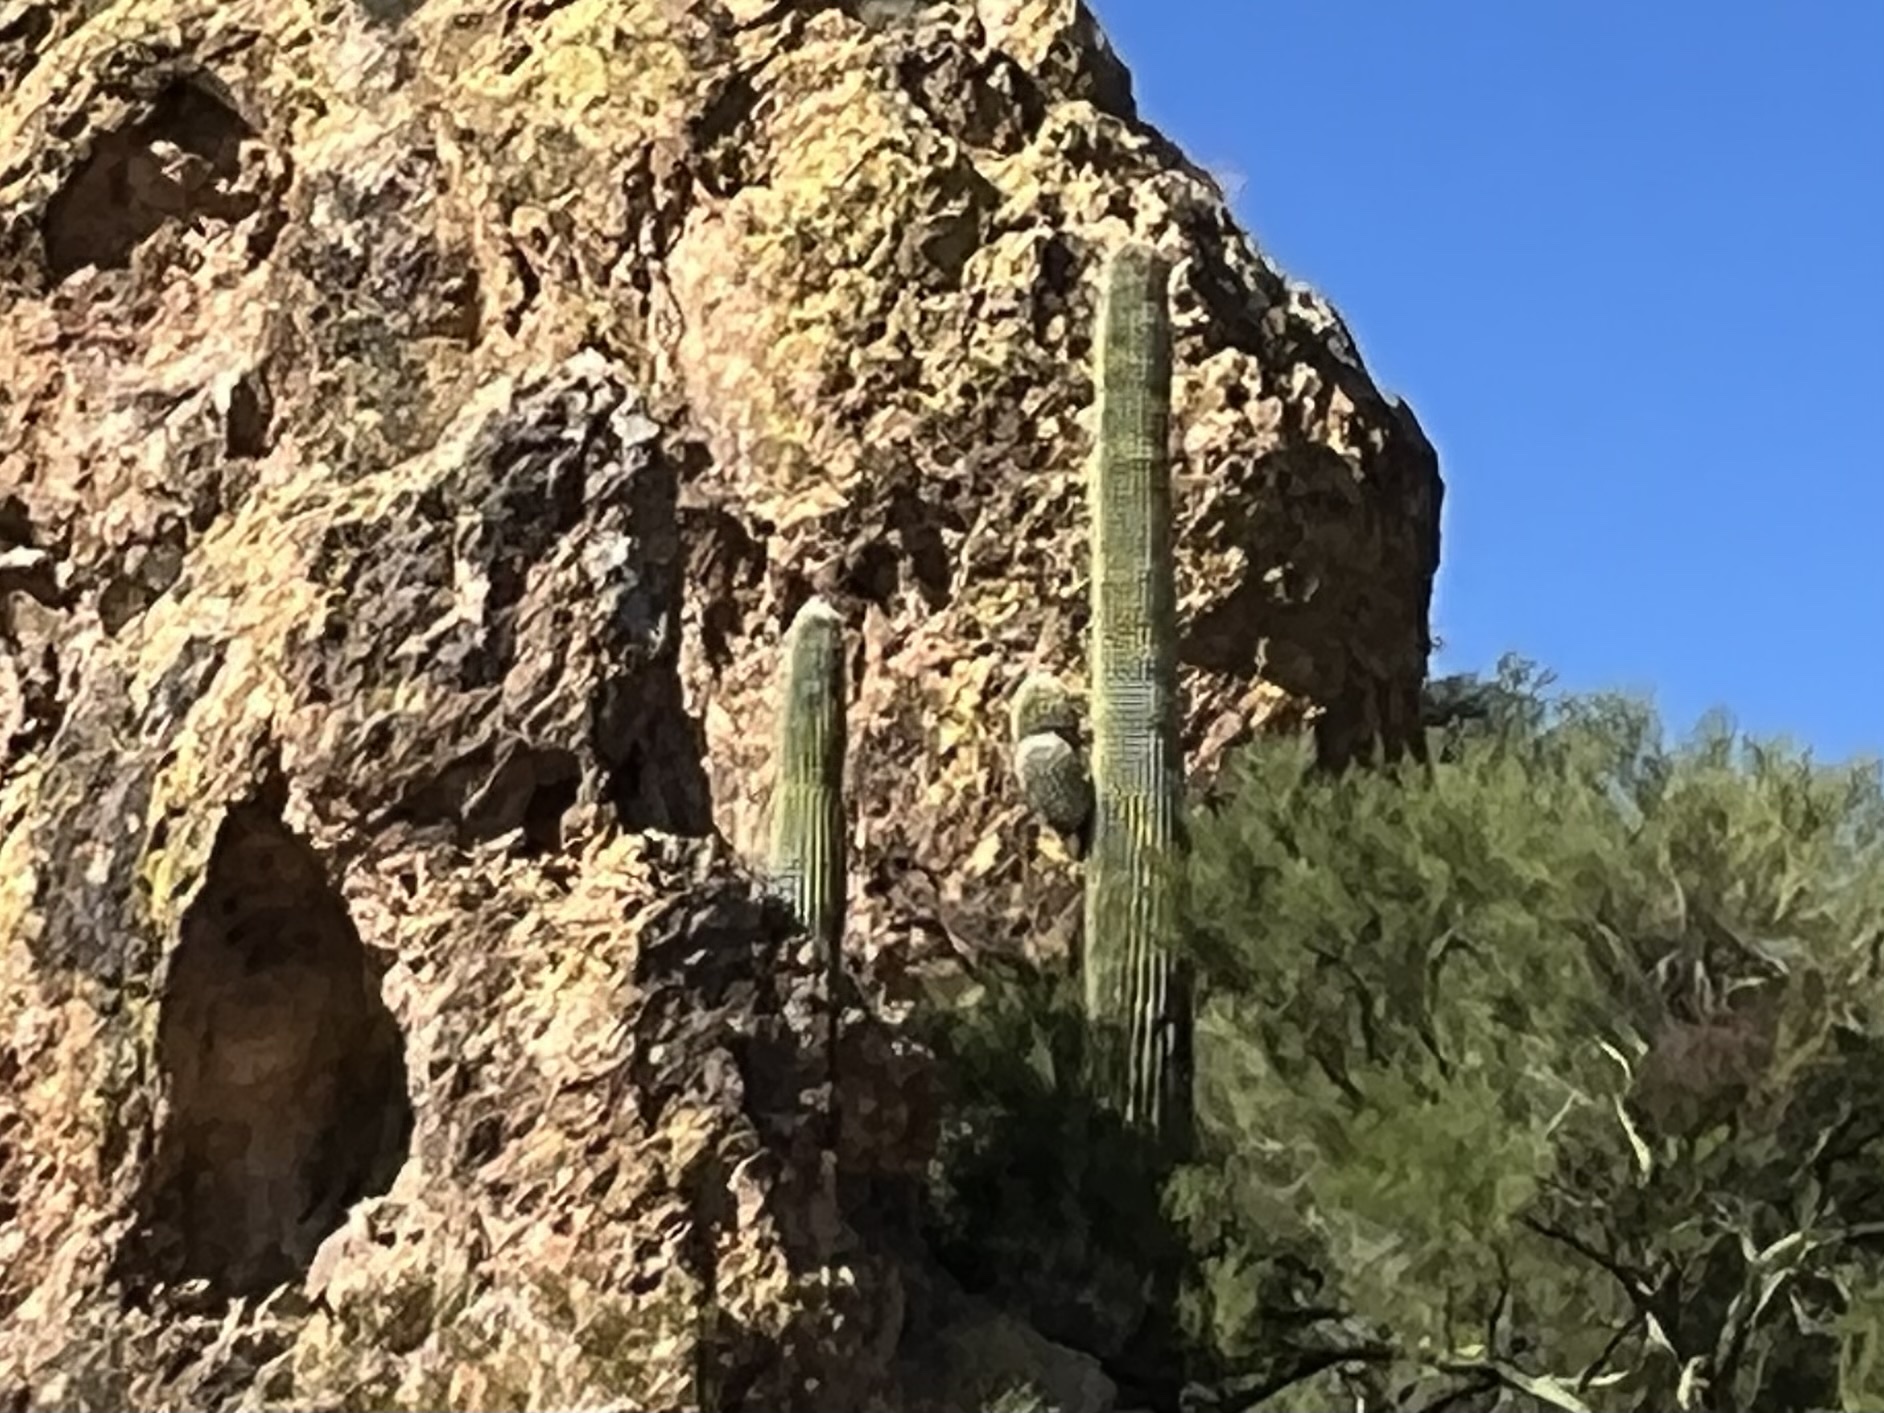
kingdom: Plantae
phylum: Tracheophyta
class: Magnoliopsida
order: Caryophyllales
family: Cactaceae
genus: Carnegiea
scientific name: Carnegiea gigantea
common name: Saguaro
